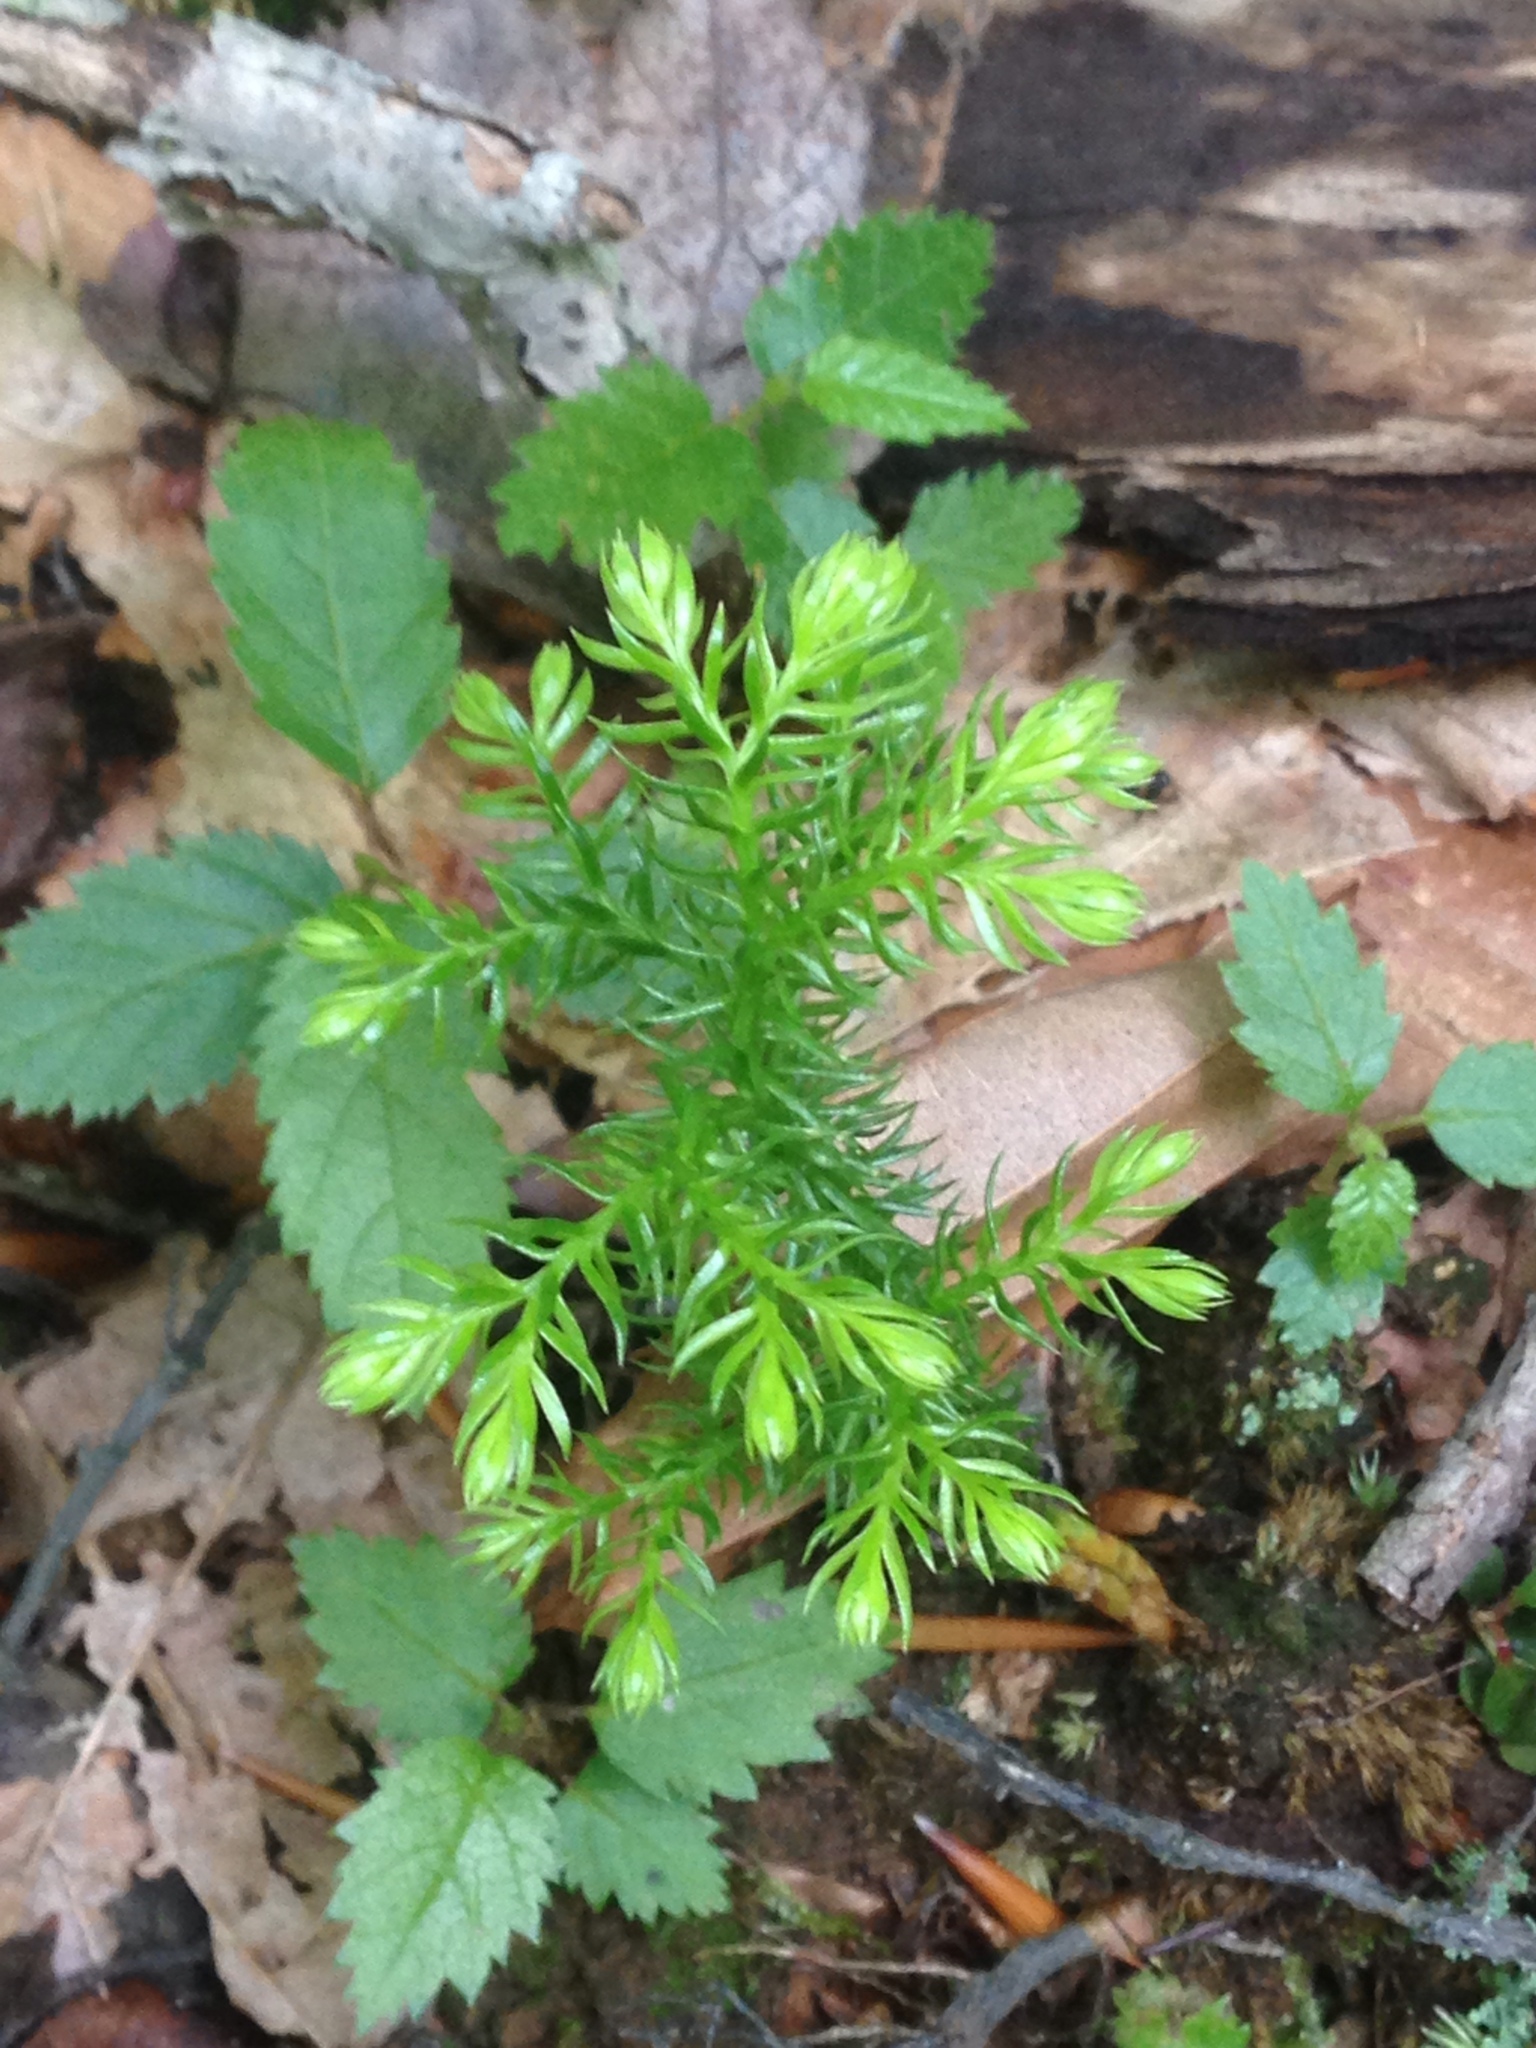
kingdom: Plantae
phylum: Tracheophyta
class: Lycopodiopsida
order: Lycopodiales
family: Lycopodiaceae
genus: Dendrolycopodium
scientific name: Dendrolycopodium dendroideum
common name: Northern tree-clubmoss
